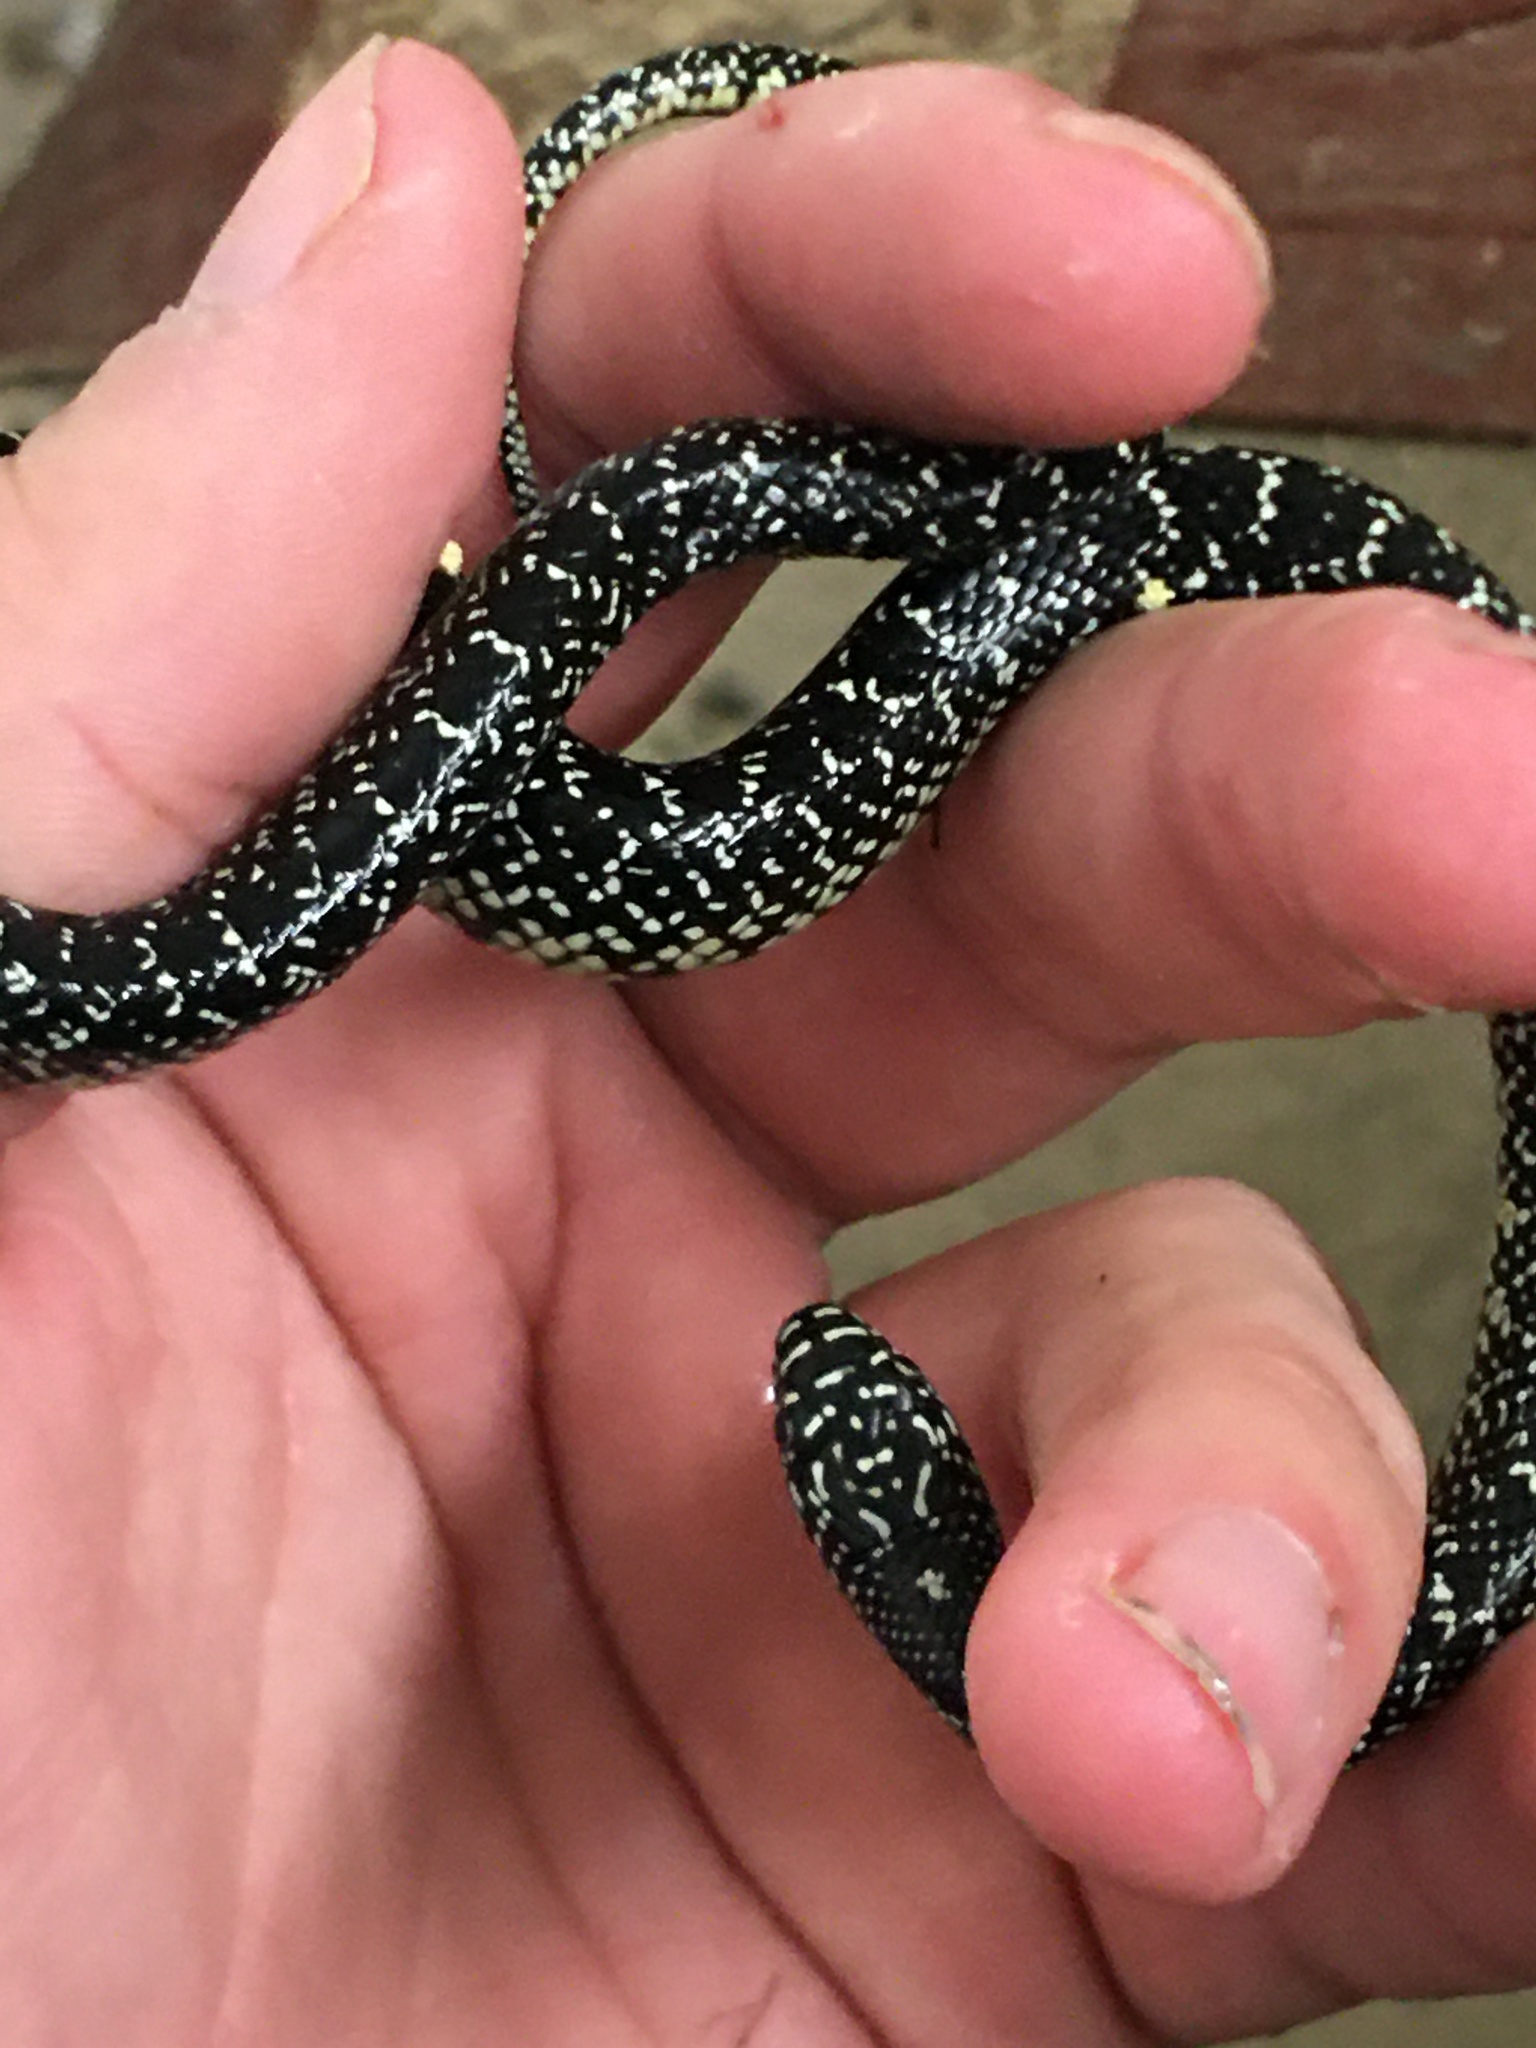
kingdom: Animalia
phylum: Chordata
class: Squamata
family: Colubridae
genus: Lampropeltis
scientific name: Lampropeltis holbrooki
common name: Speckled kingsnake
